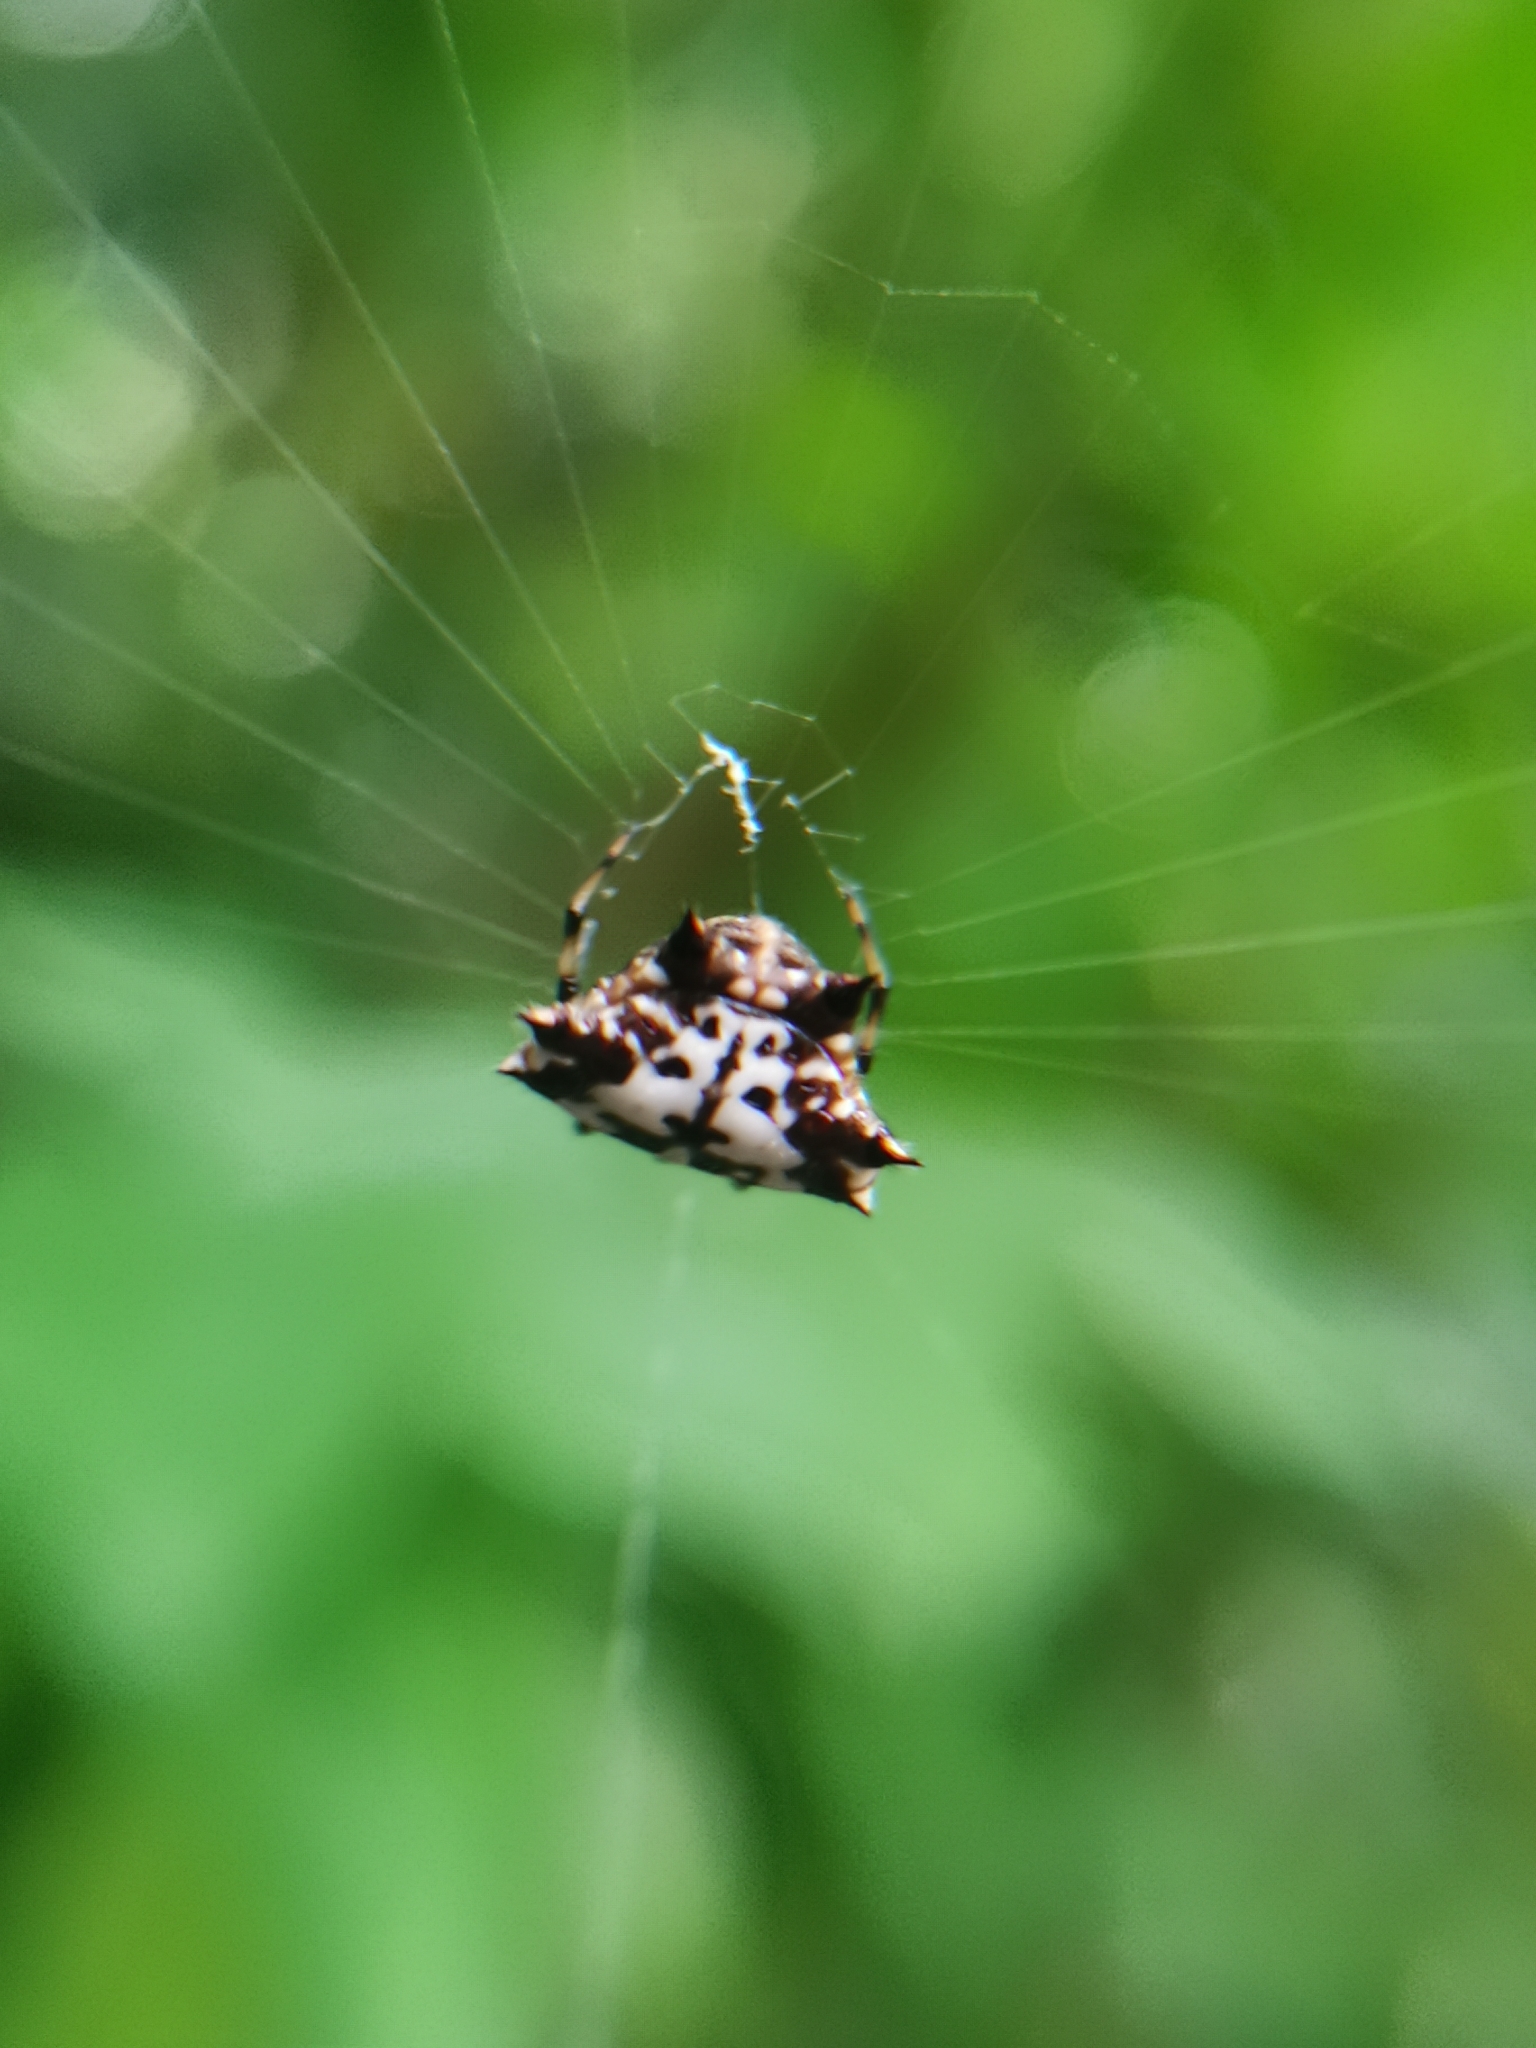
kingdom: Animalia
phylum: Arthropoda
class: Arachnida
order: Araneae
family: Araneidae
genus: Gasteracantha
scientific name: Gasteracantha kuhli
